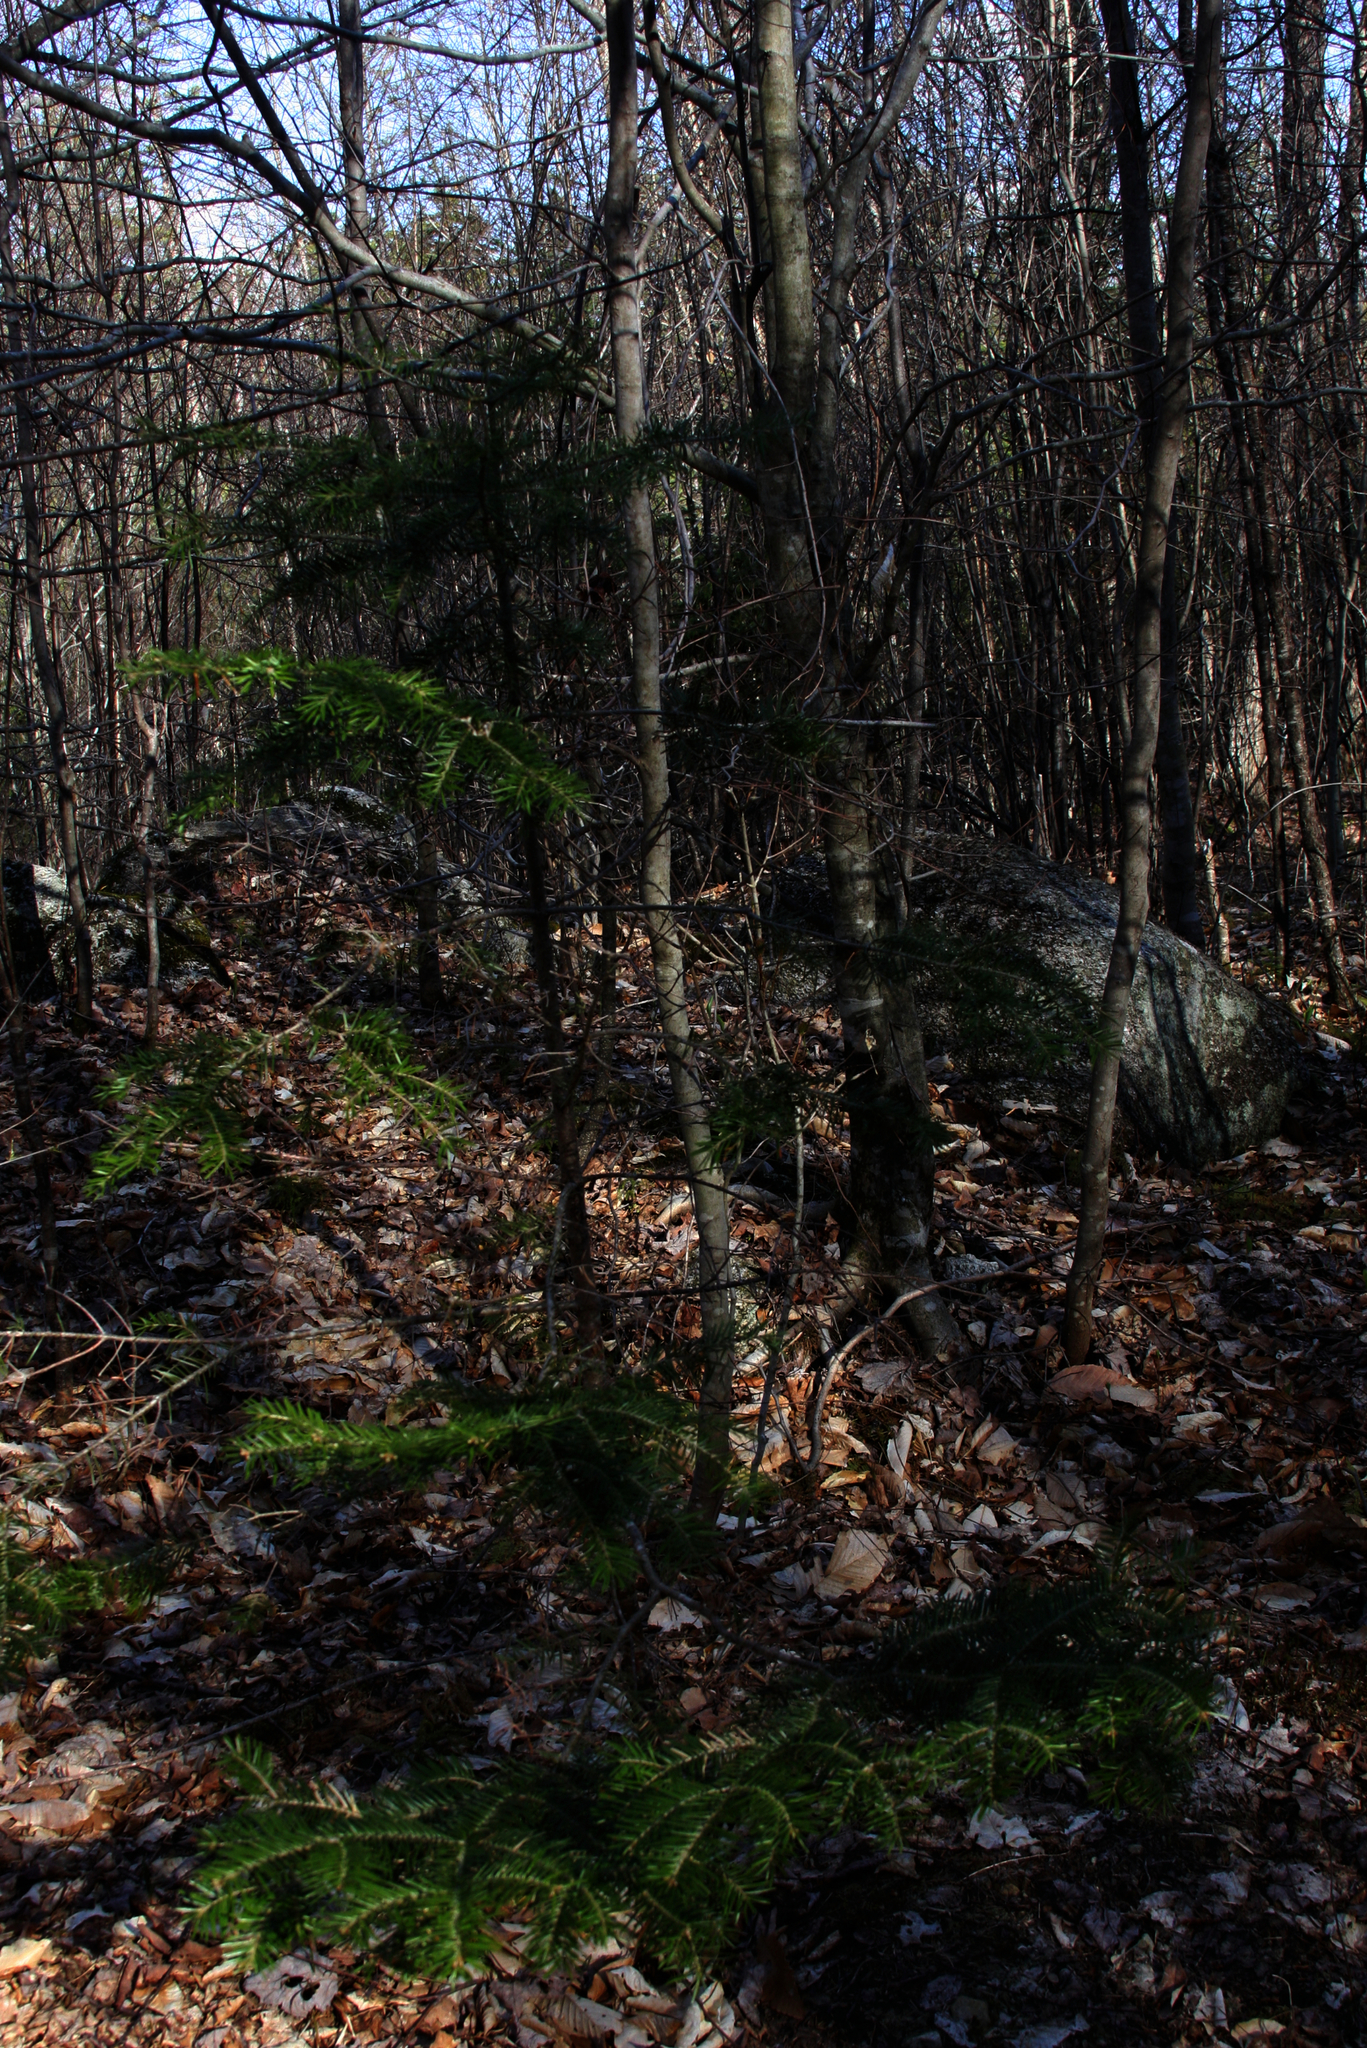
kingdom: Plantae
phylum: Tracheophyta
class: Pinopsida
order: Pinales
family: Pinaceae
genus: Abies
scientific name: Abies balsamea
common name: Balsam fir
